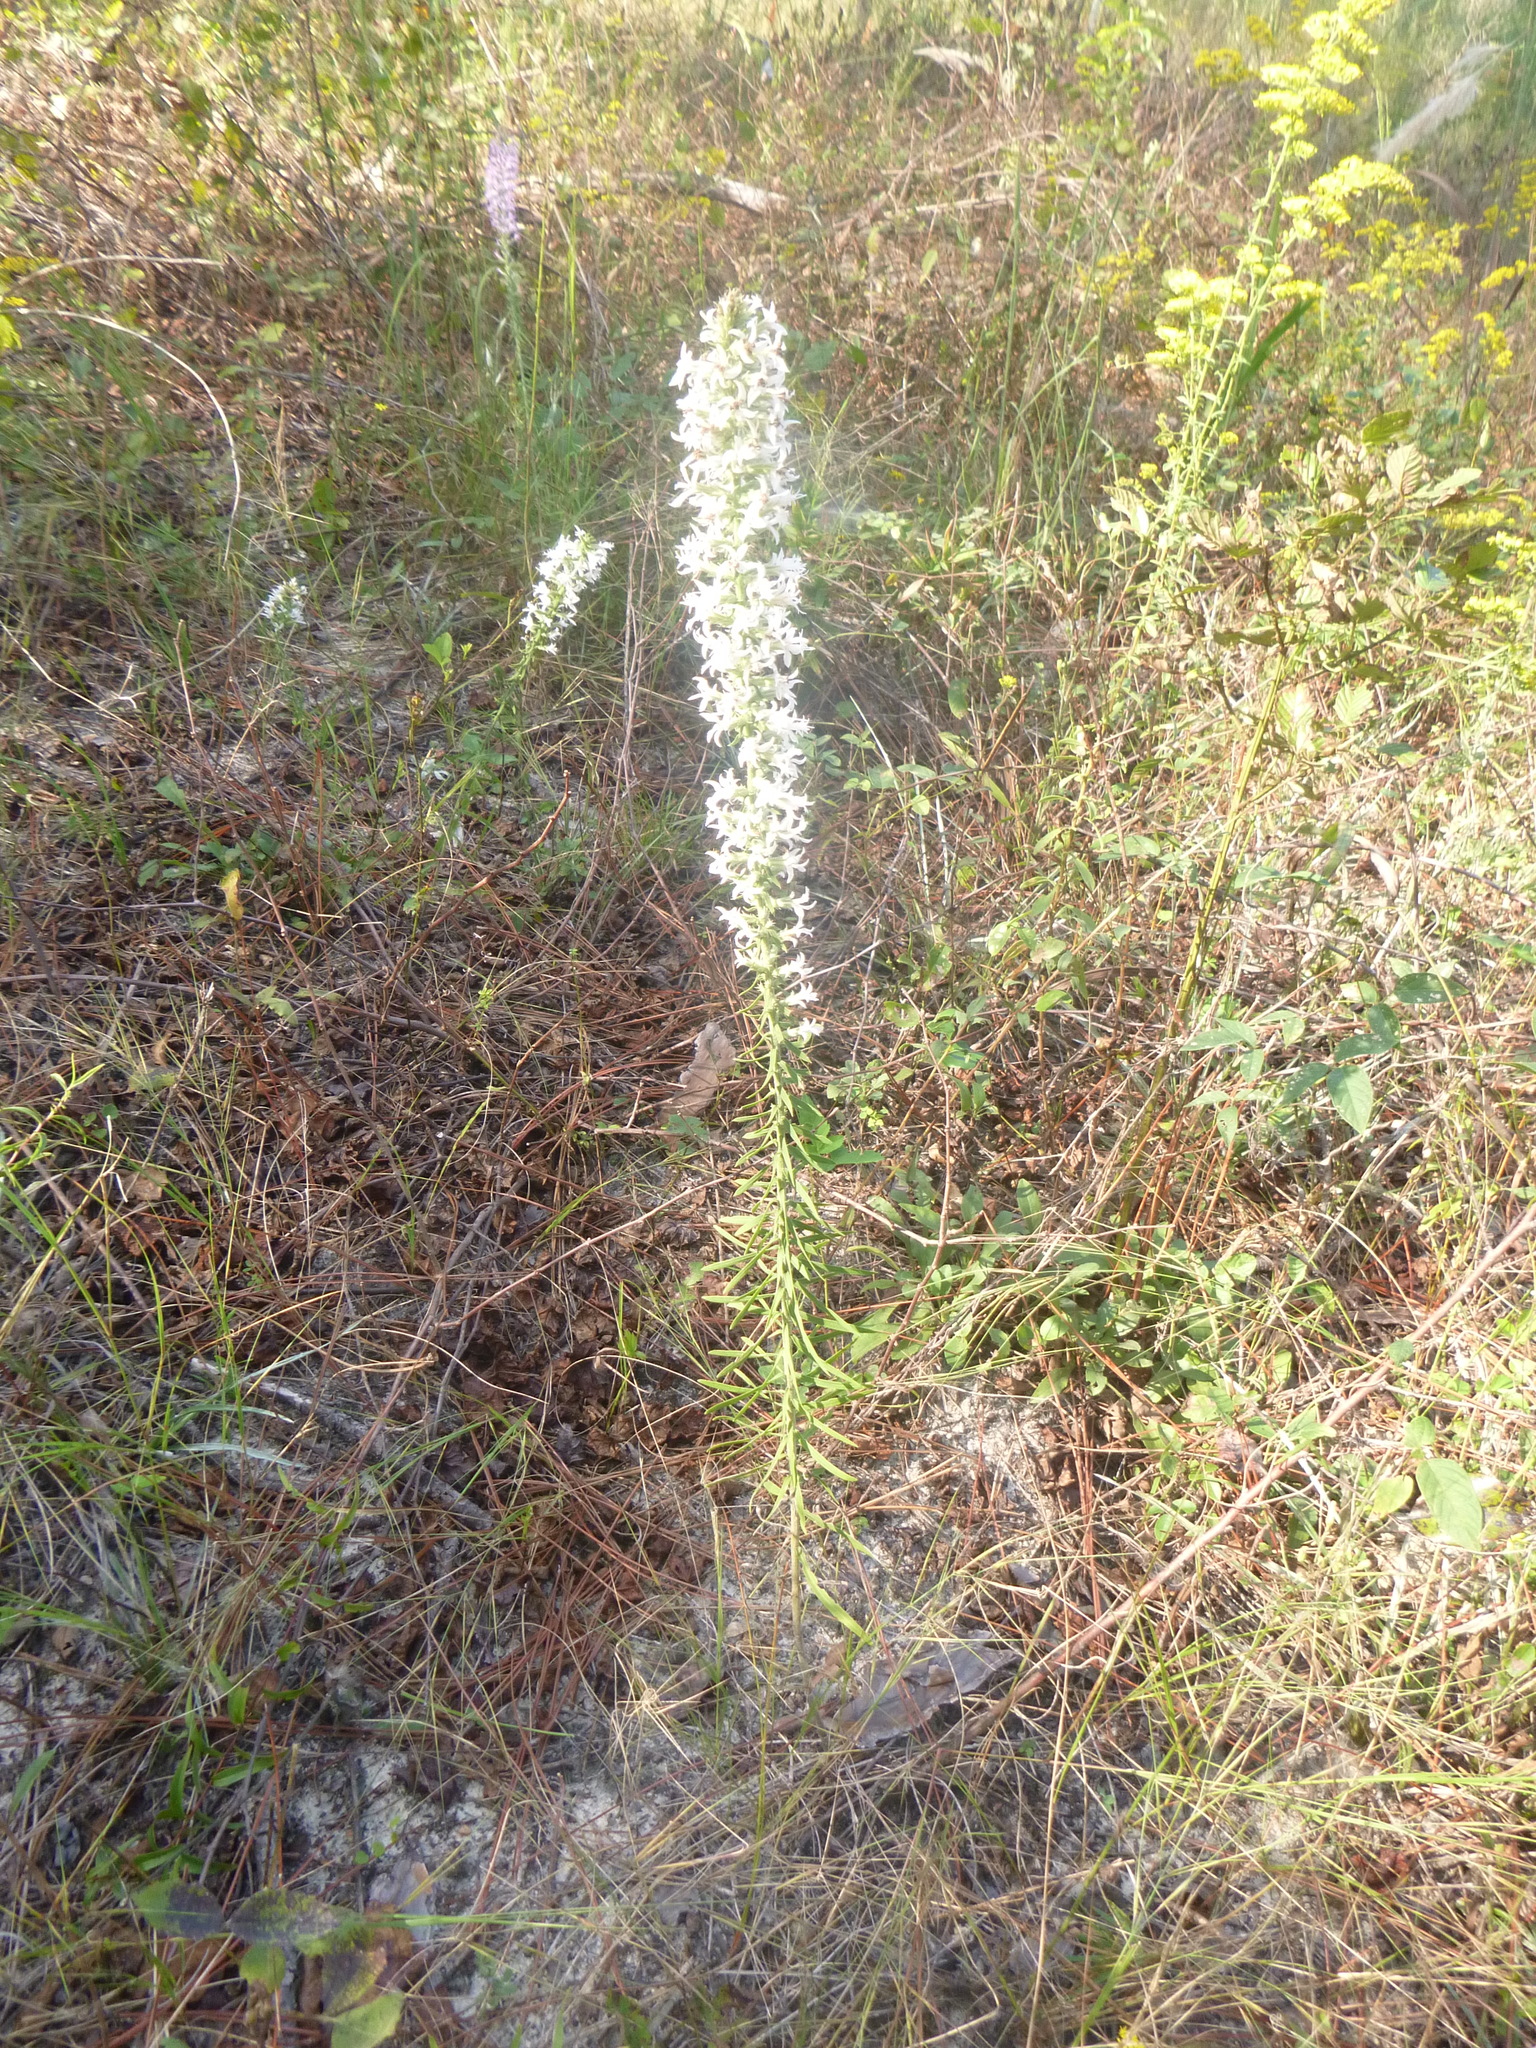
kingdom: Plantae
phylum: Tracheophyta
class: Magnoliopsida
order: Asterales
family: Asteraceae
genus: Liatris
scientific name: Liatris elegans
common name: Pinkscale gayfeather
